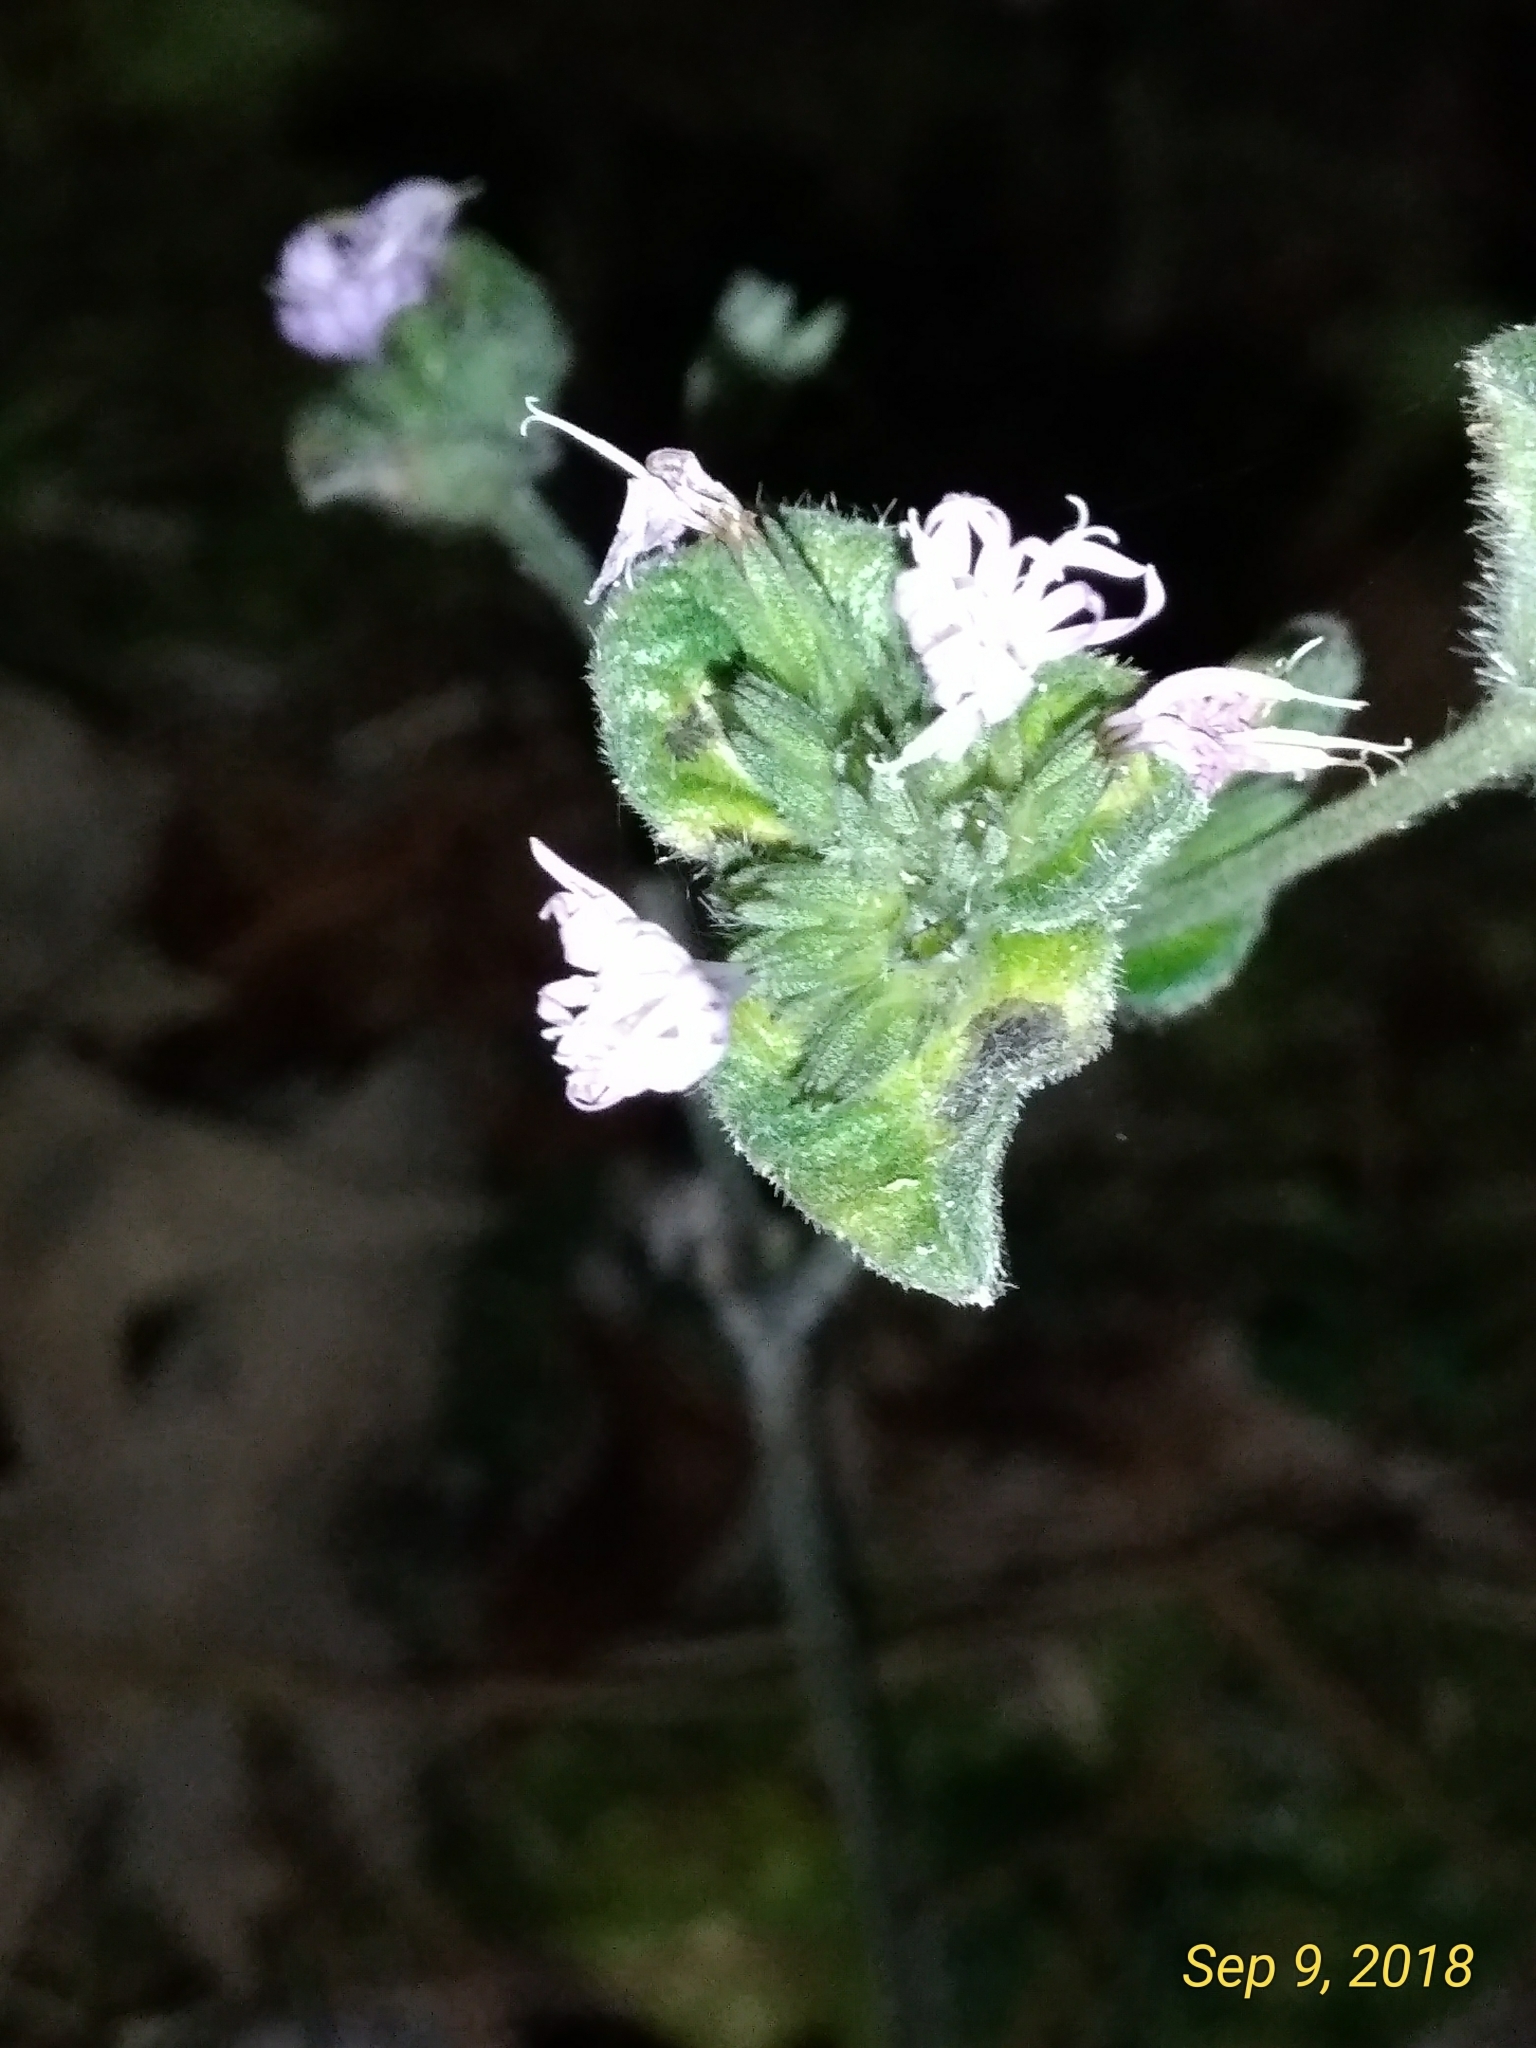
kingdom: Plantae
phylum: Tracheophyta
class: Magnoliopsida
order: Asterales
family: Asteraceae
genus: Elephantopus
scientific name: Elephantopus tomentosus
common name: Tobacco-weed
